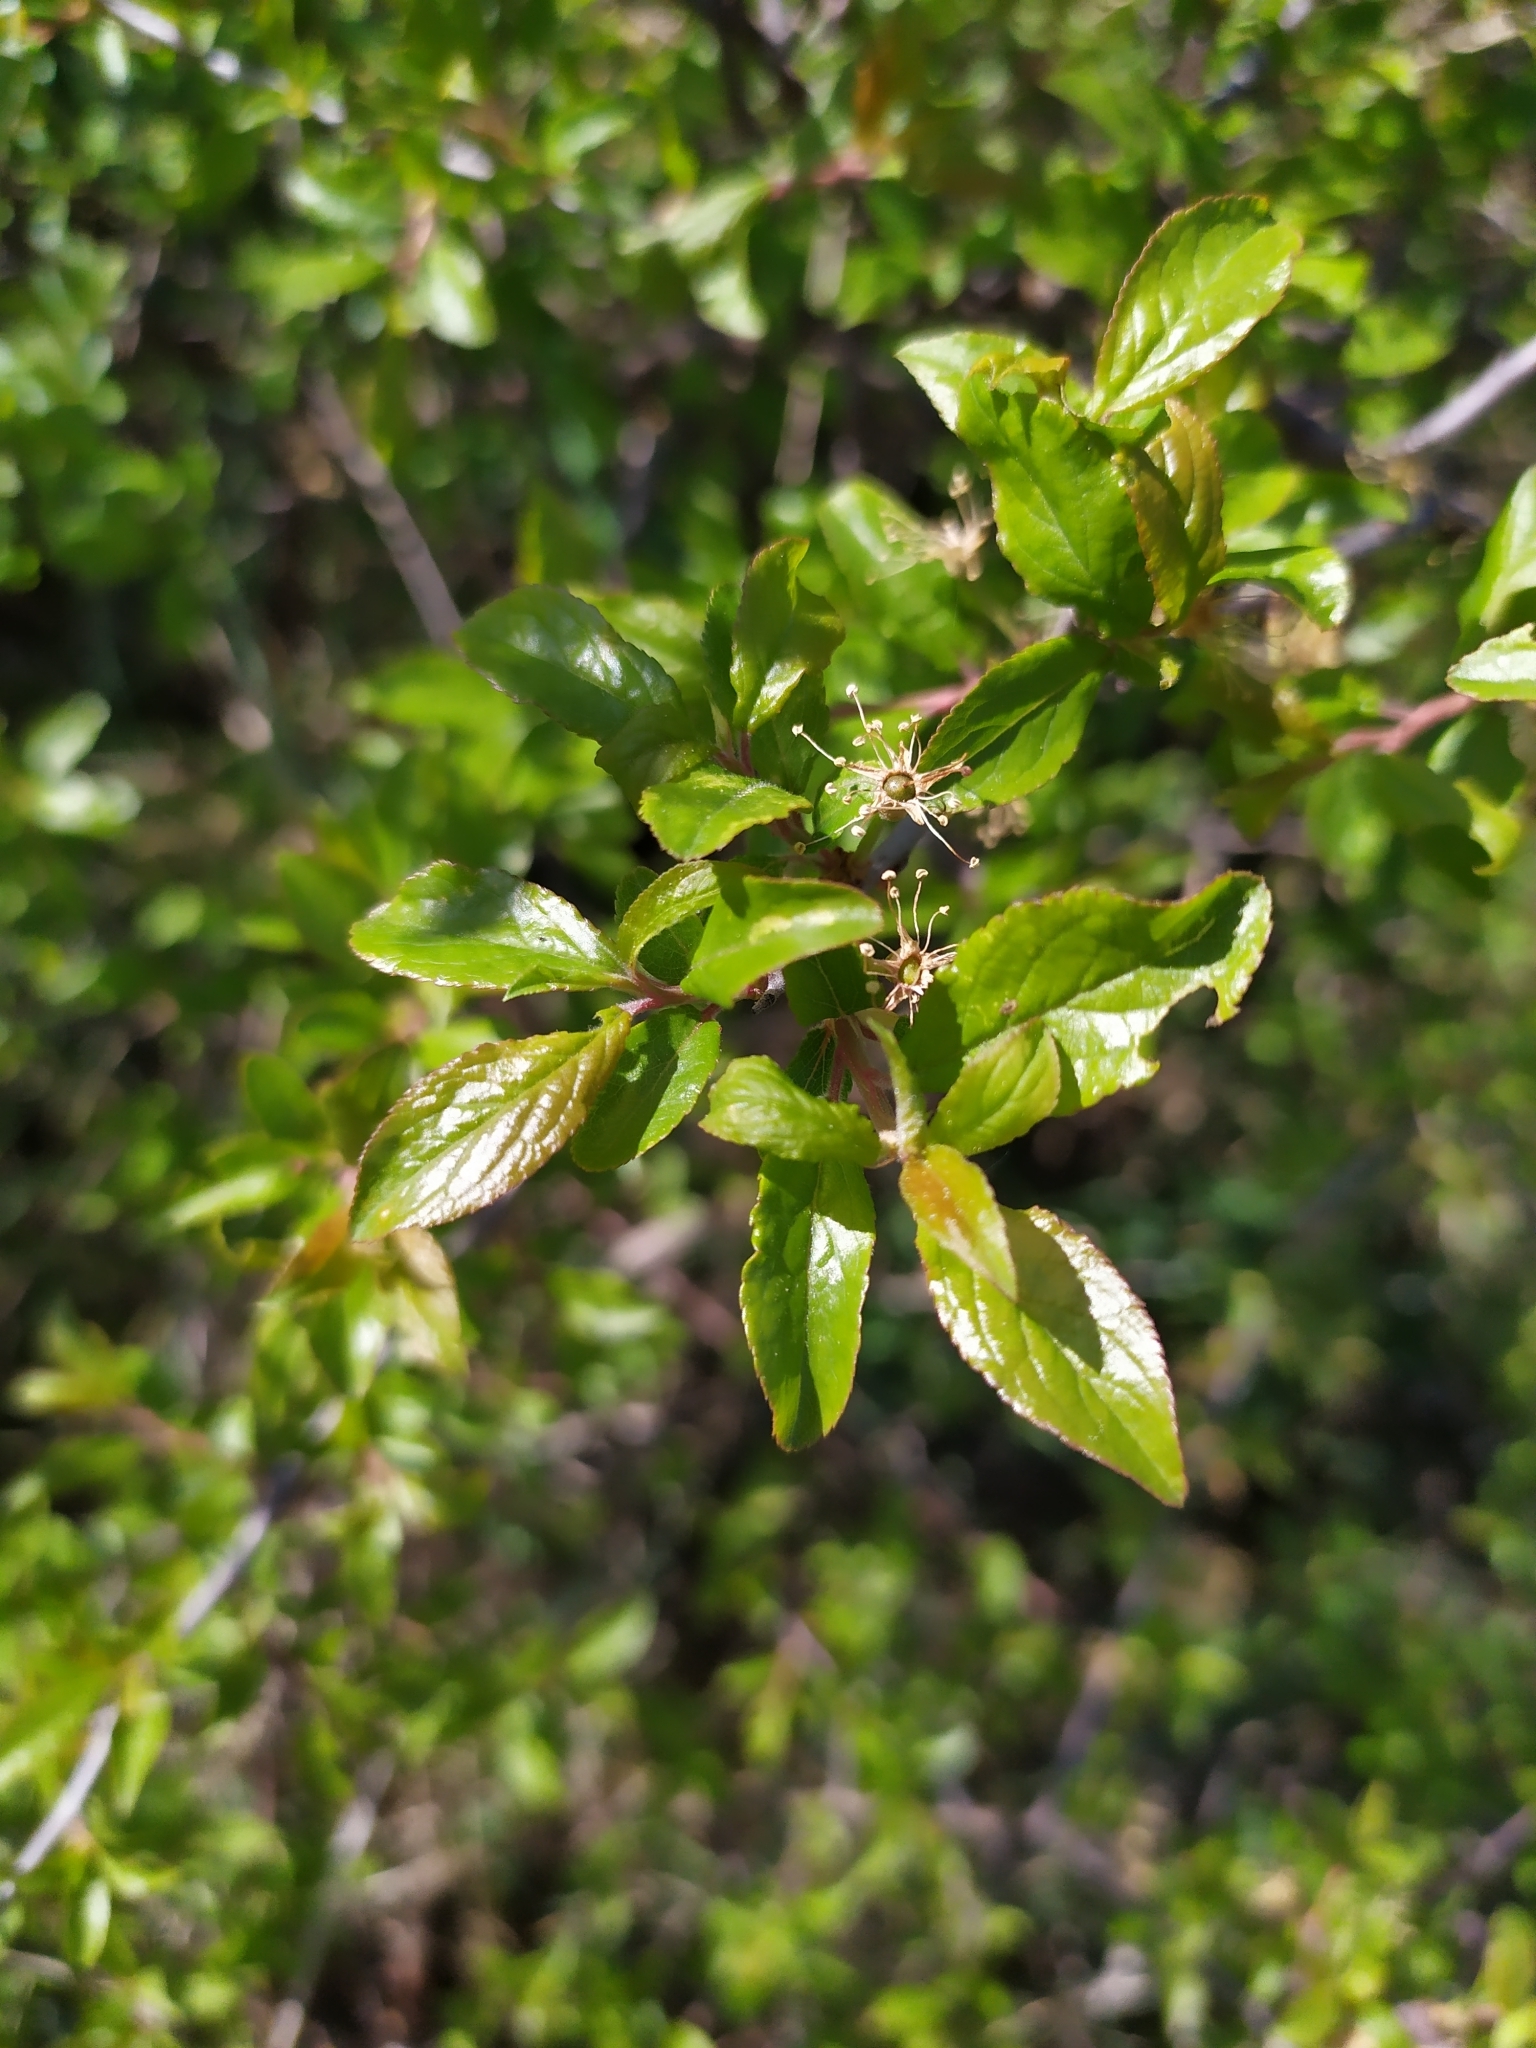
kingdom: Plantae
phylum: Tracheophyta
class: Magnoliopsida
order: Rosales
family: Rosaceae
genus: Prunus
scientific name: Prunus spinosa
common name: Blackthorn
